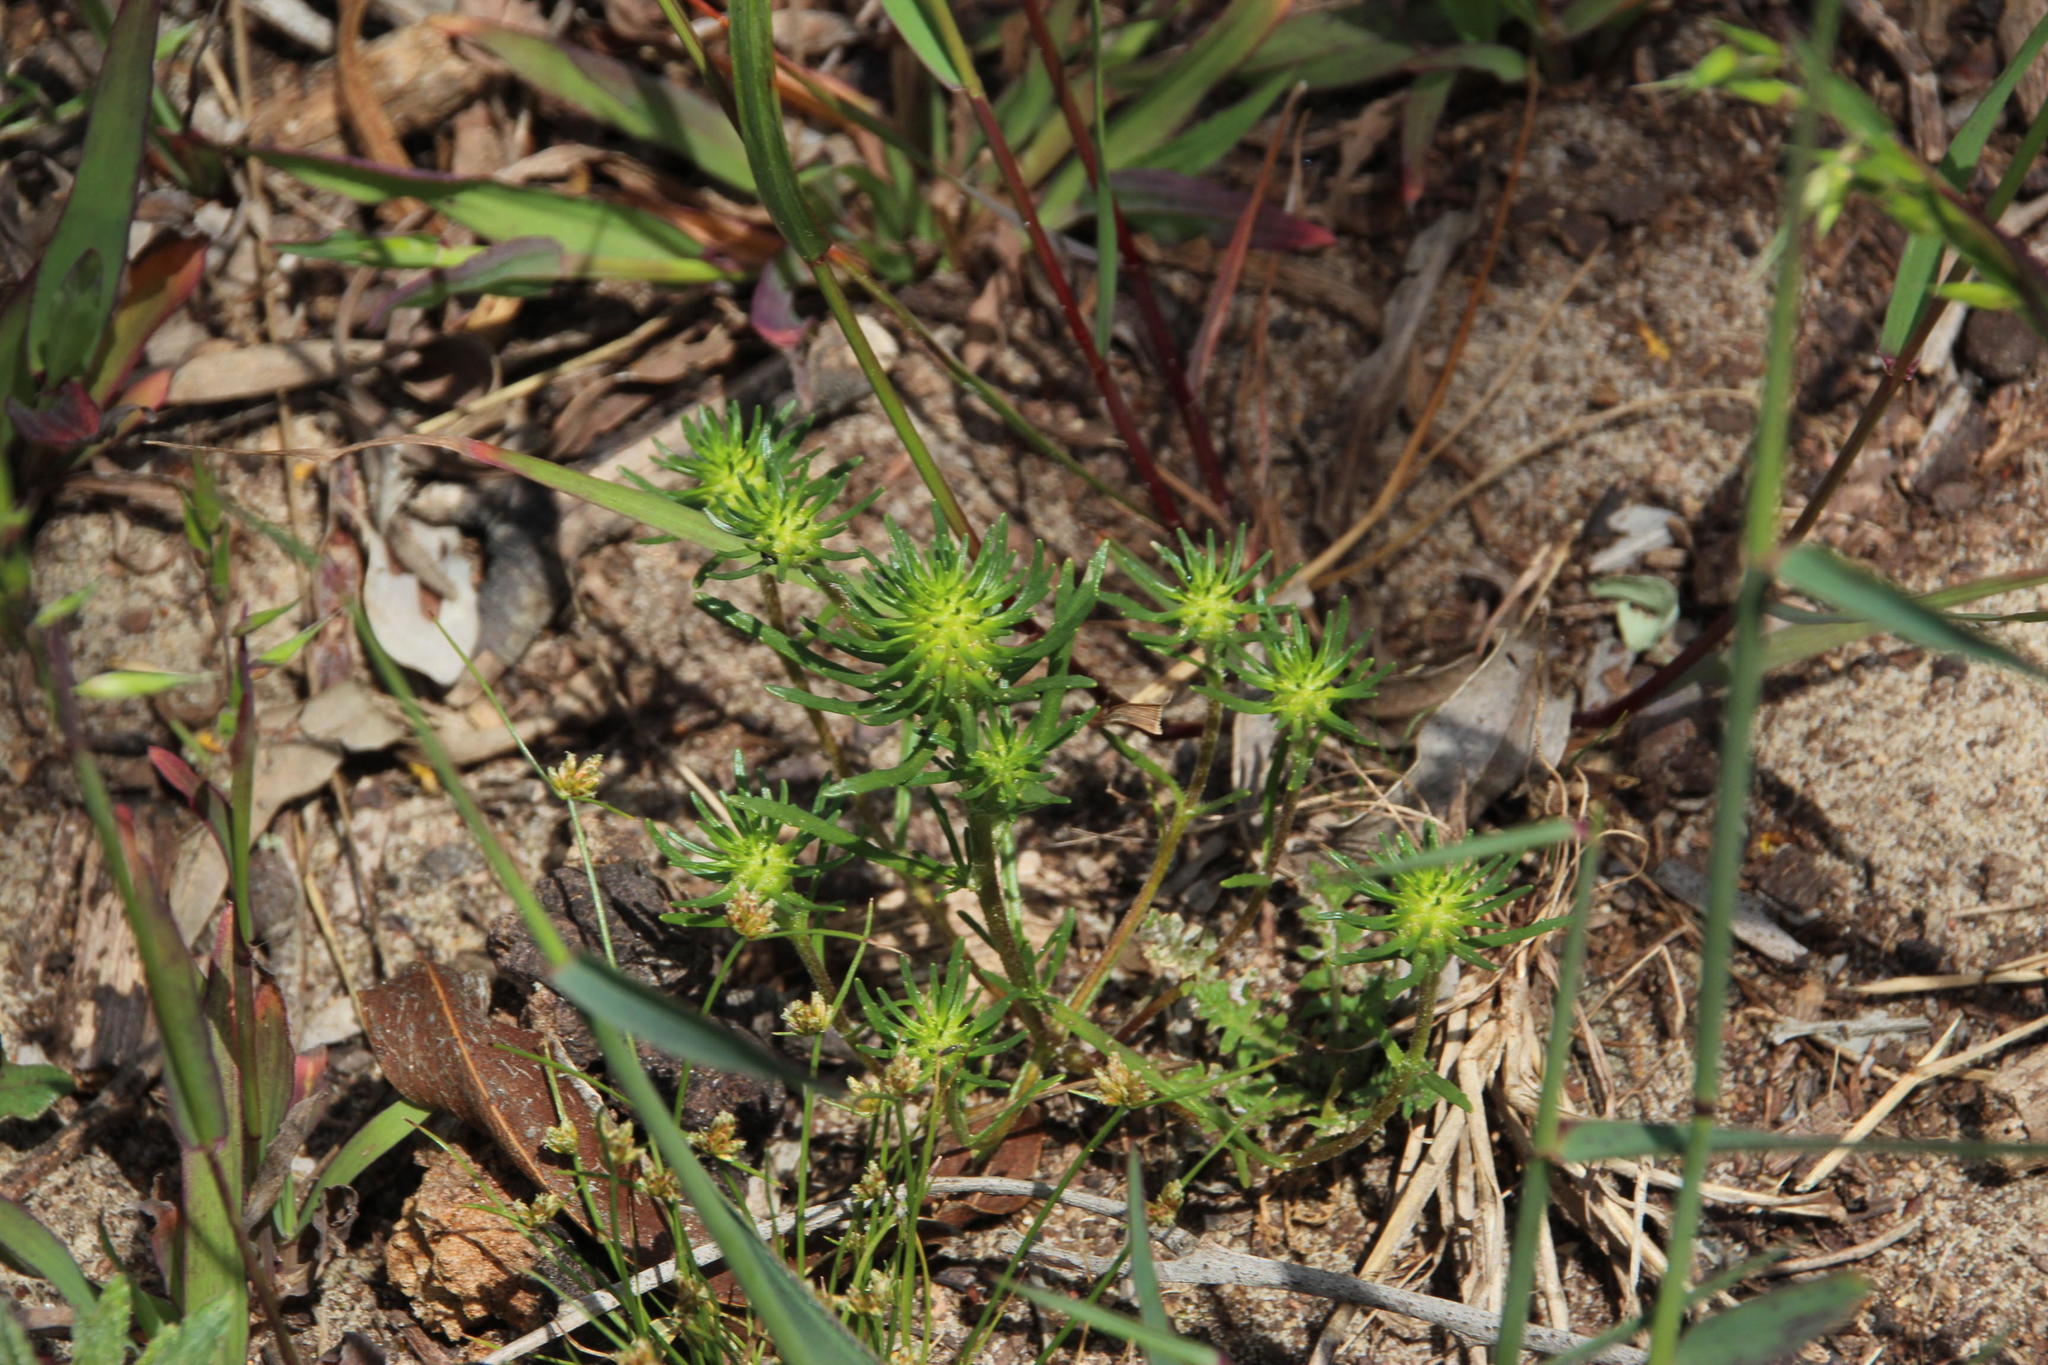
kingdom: Plantae
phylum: Tracheophyta
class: Magnoliopsida
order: Lamiales
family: Scrophulariaceae
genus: Dischisma
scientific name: Dischisma capitatum
